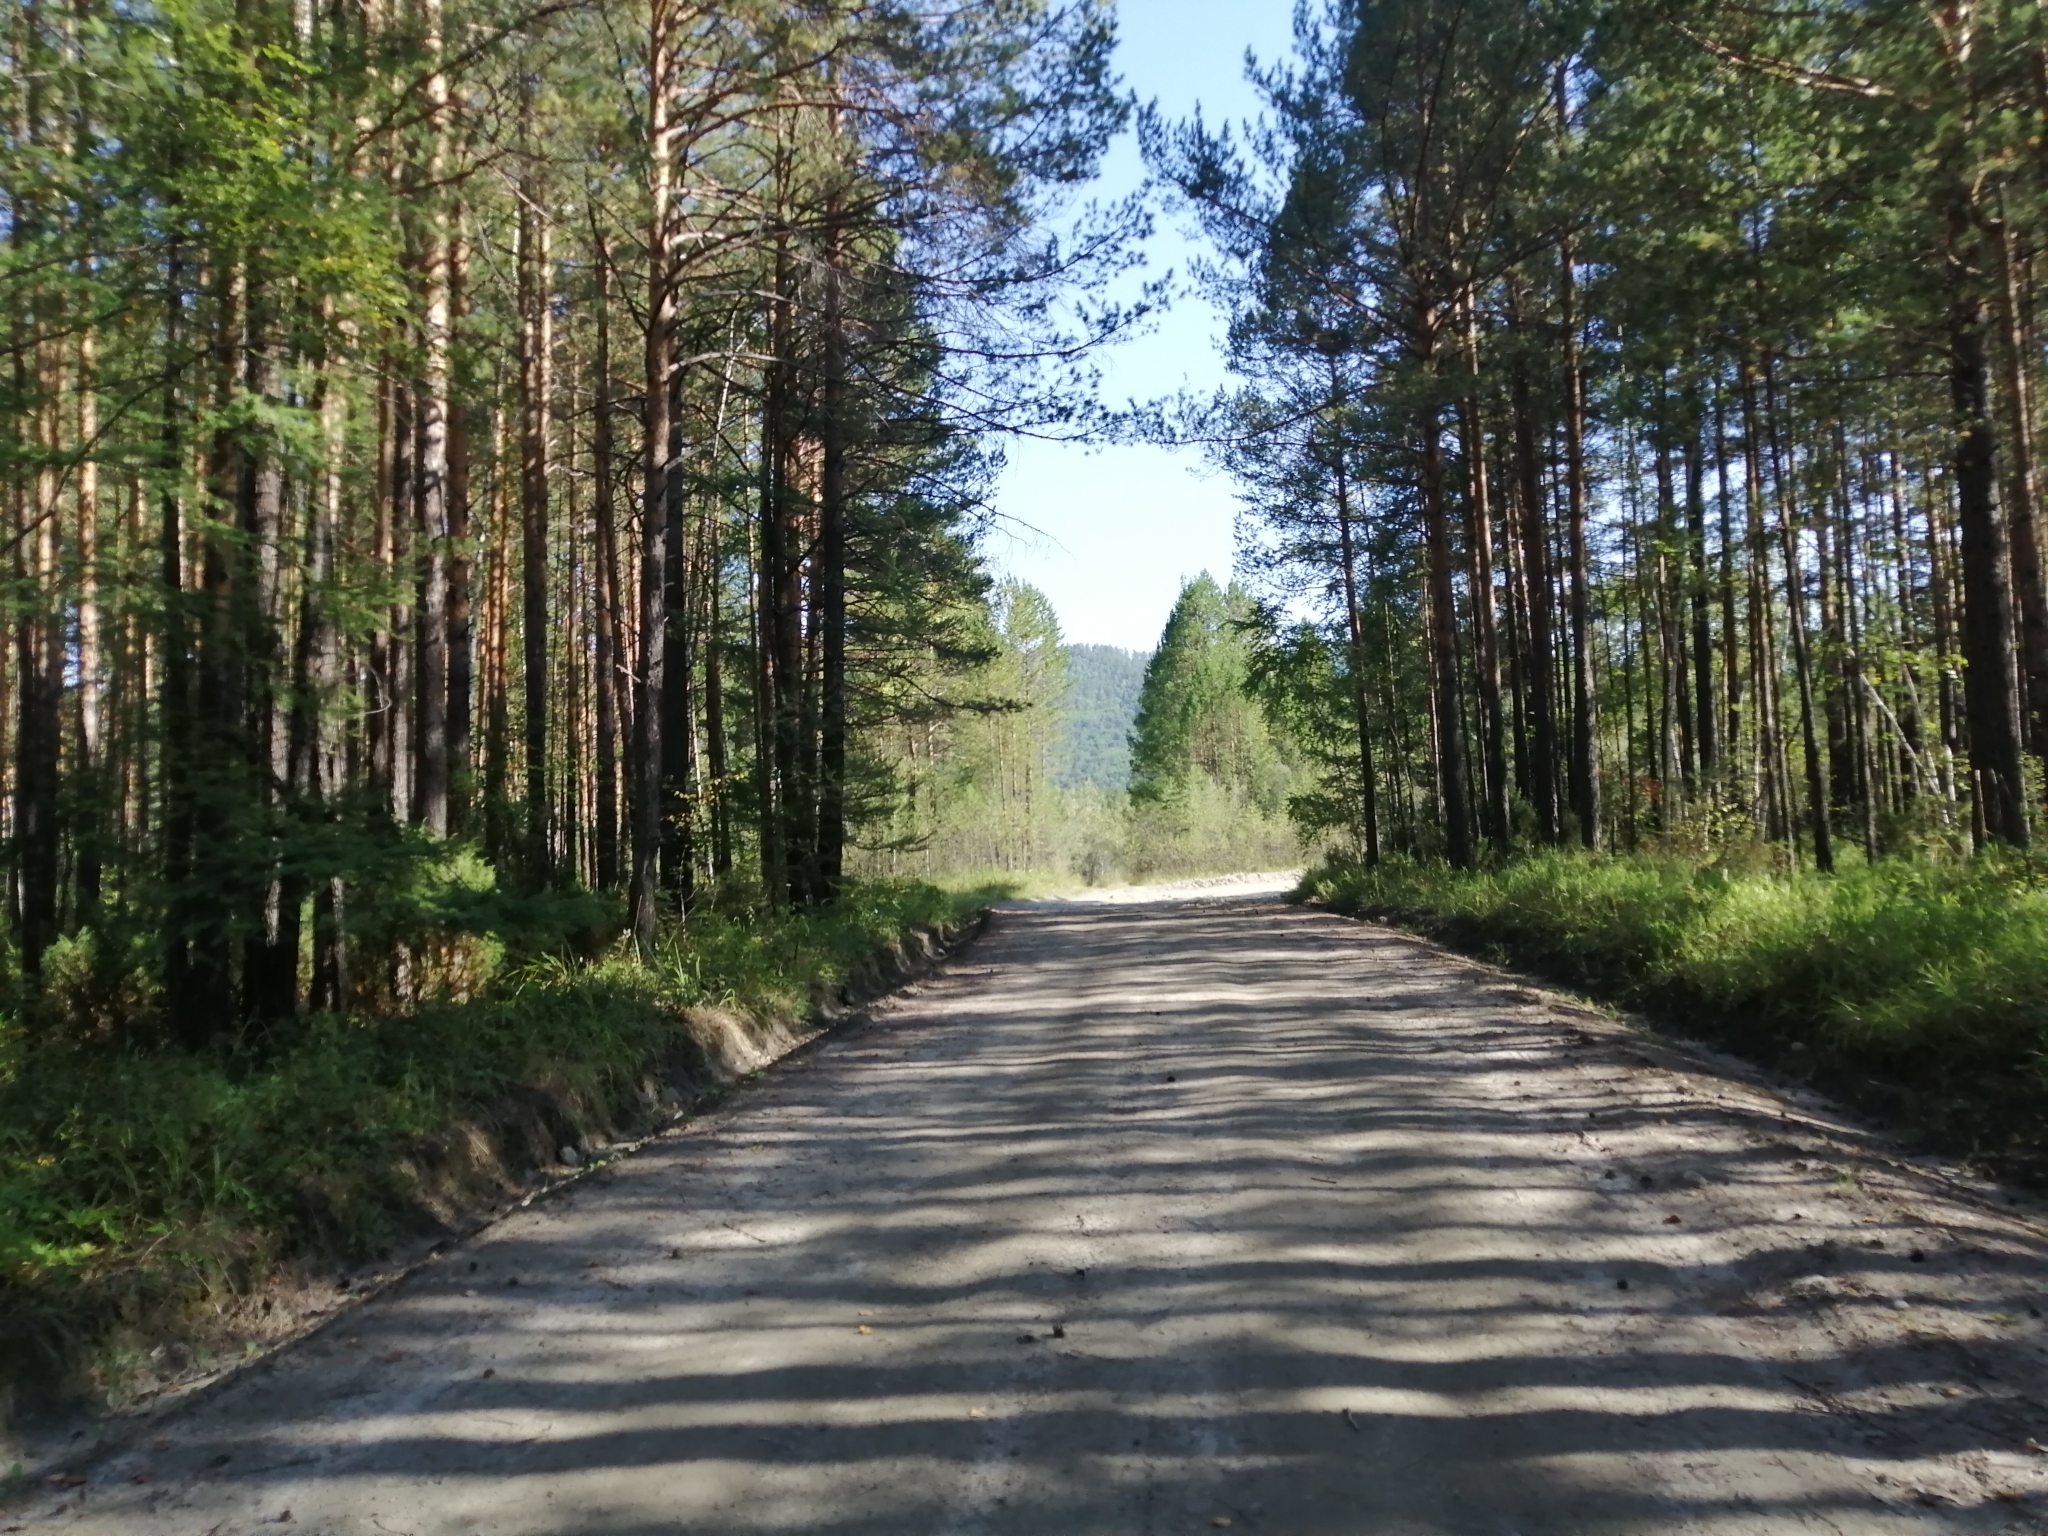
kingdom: Plantae
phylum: Tracheophyta
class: Pinopsida
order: Pinales
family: Pinaceae
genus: Pinus
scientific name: Pinus sylvestris
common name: Scots pine
